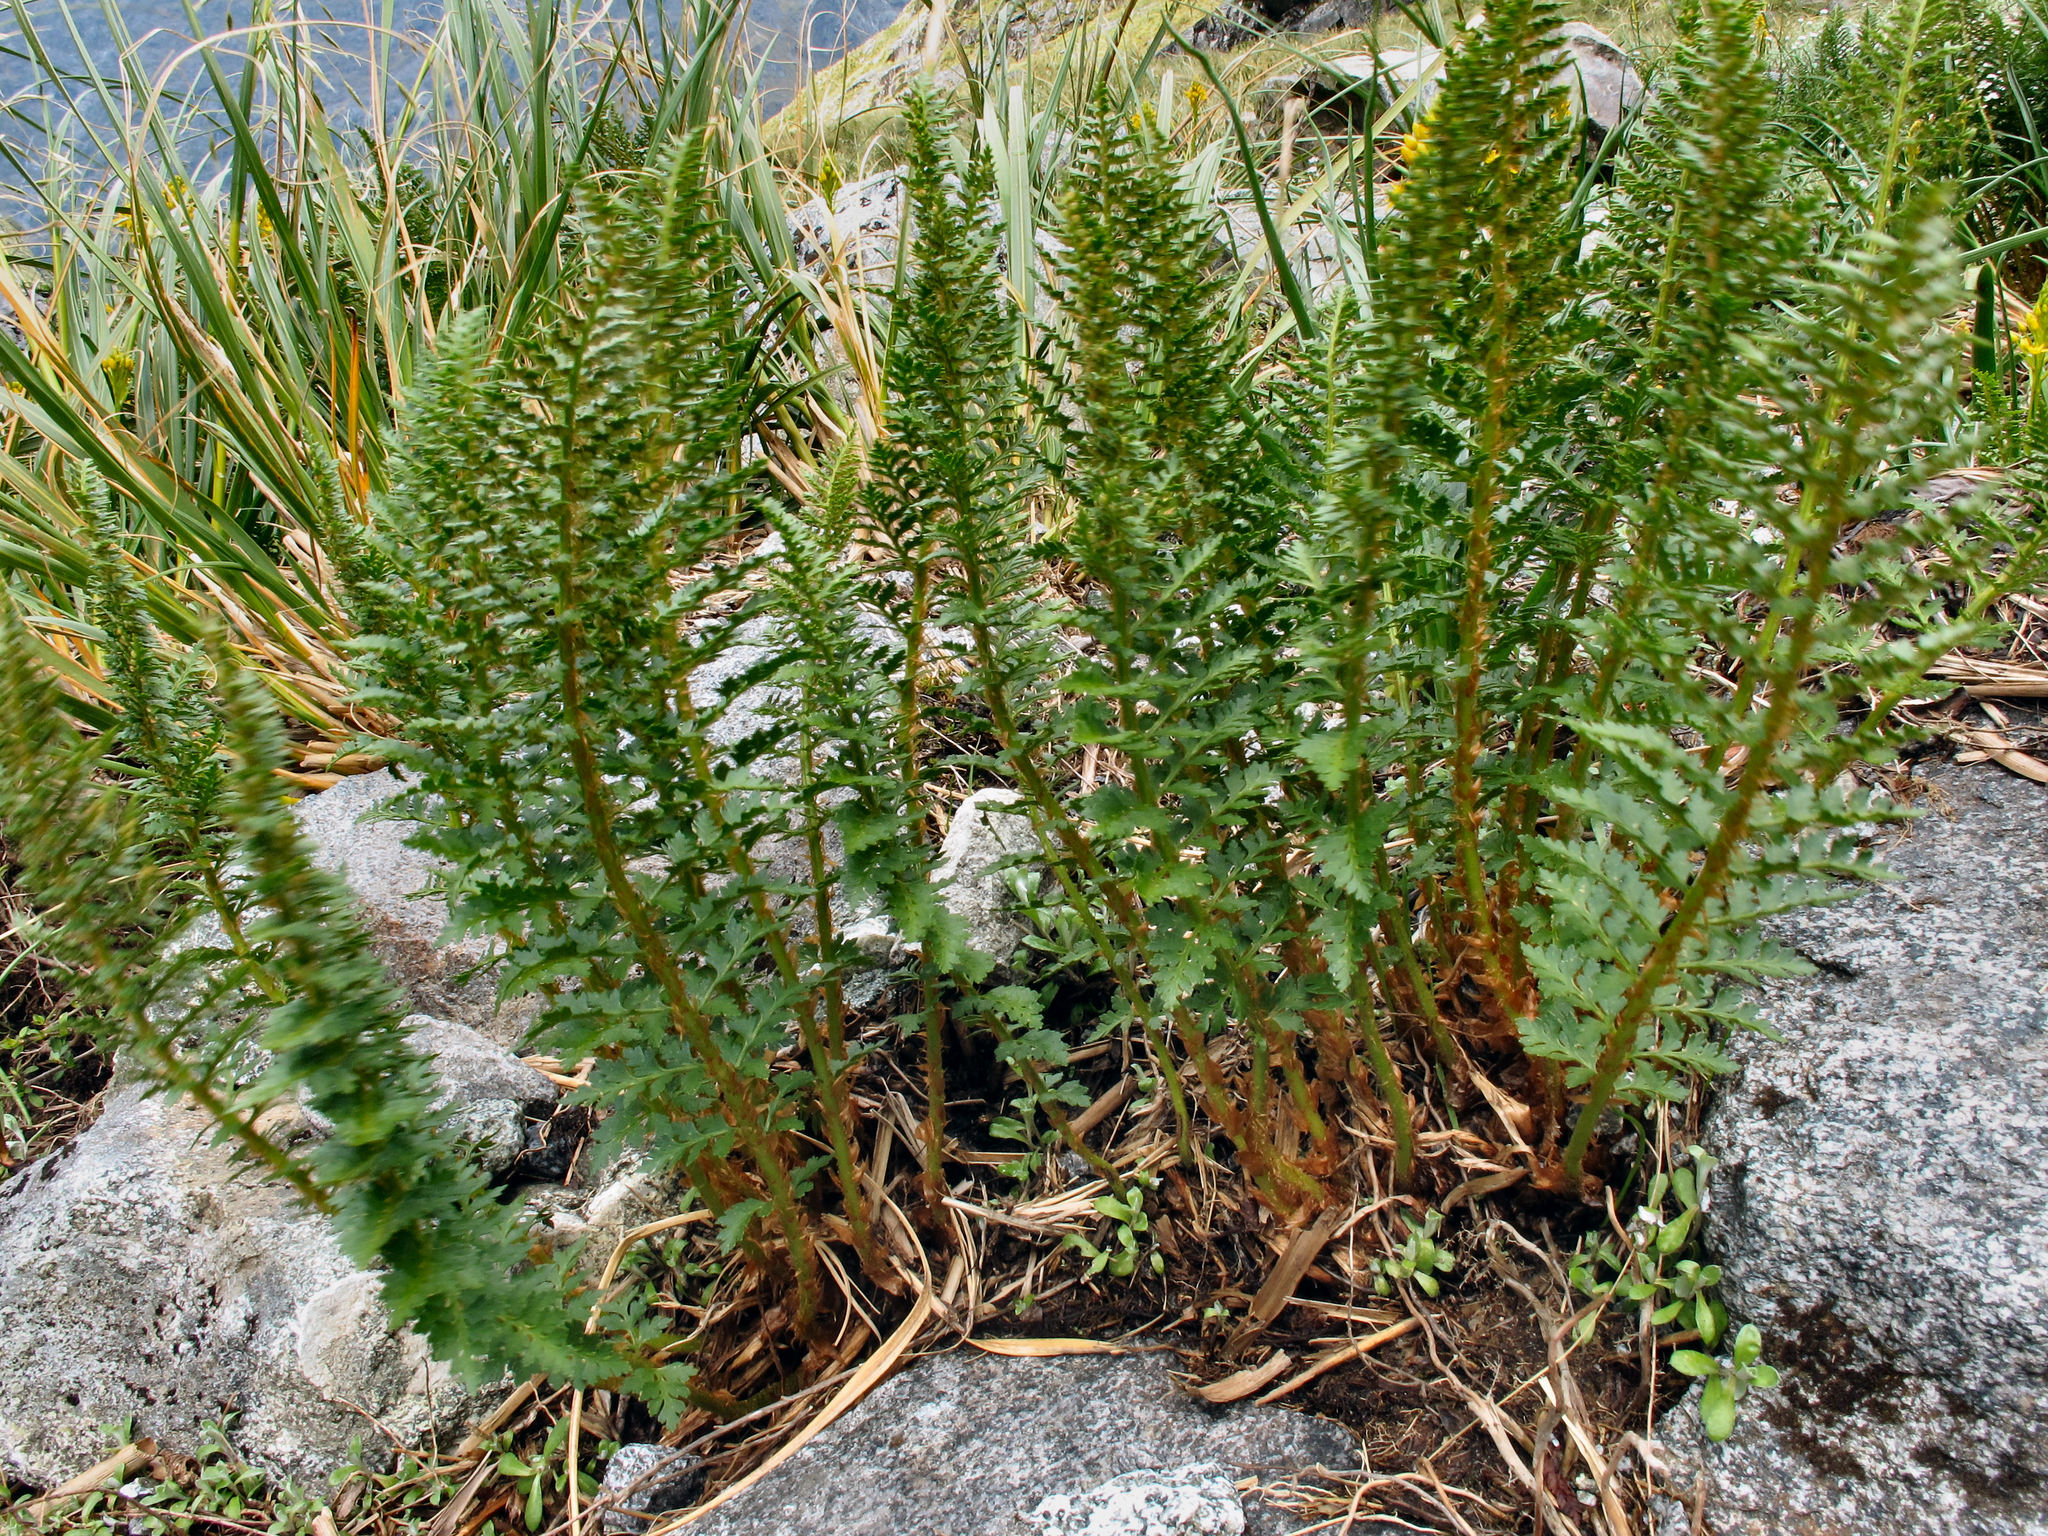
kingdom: Plantae
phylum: Tracheophyta
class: Polypodiopsida
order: Polypodiales
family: Dryopteridaceae
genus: Polystichum
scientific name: Polystichum cystostegia
